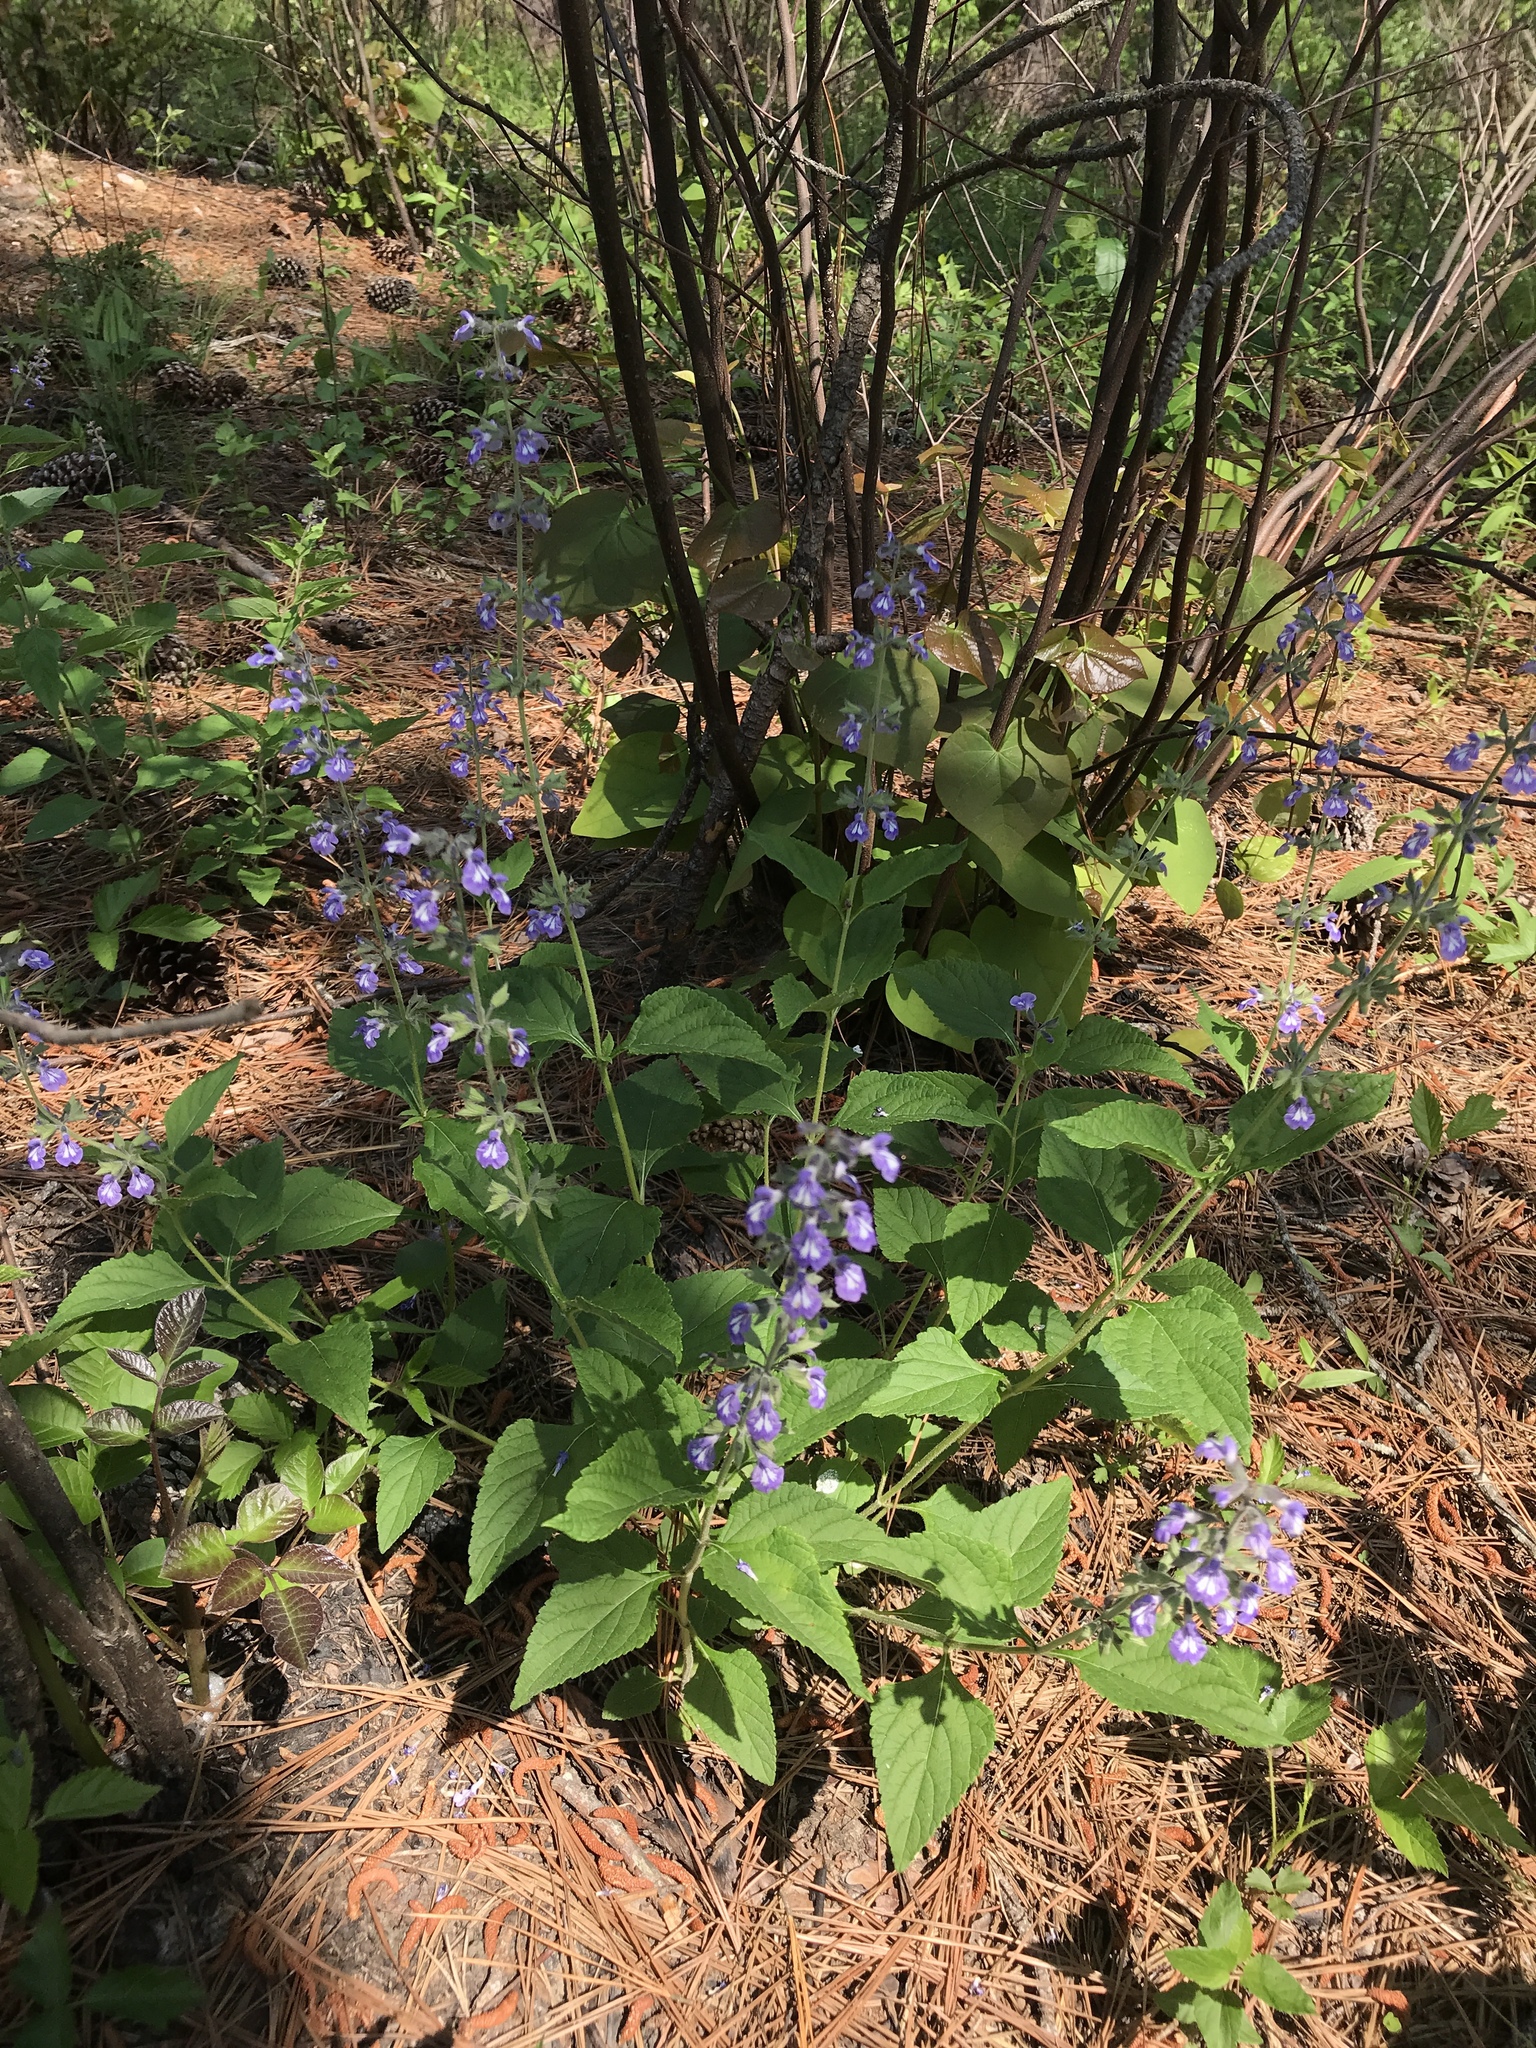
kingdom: Plantae
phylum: Tracheophyta
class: Magnoliopsida
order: Lamiales
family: Lamiaceae
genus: Salvia
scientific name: Salvia urticifolia
